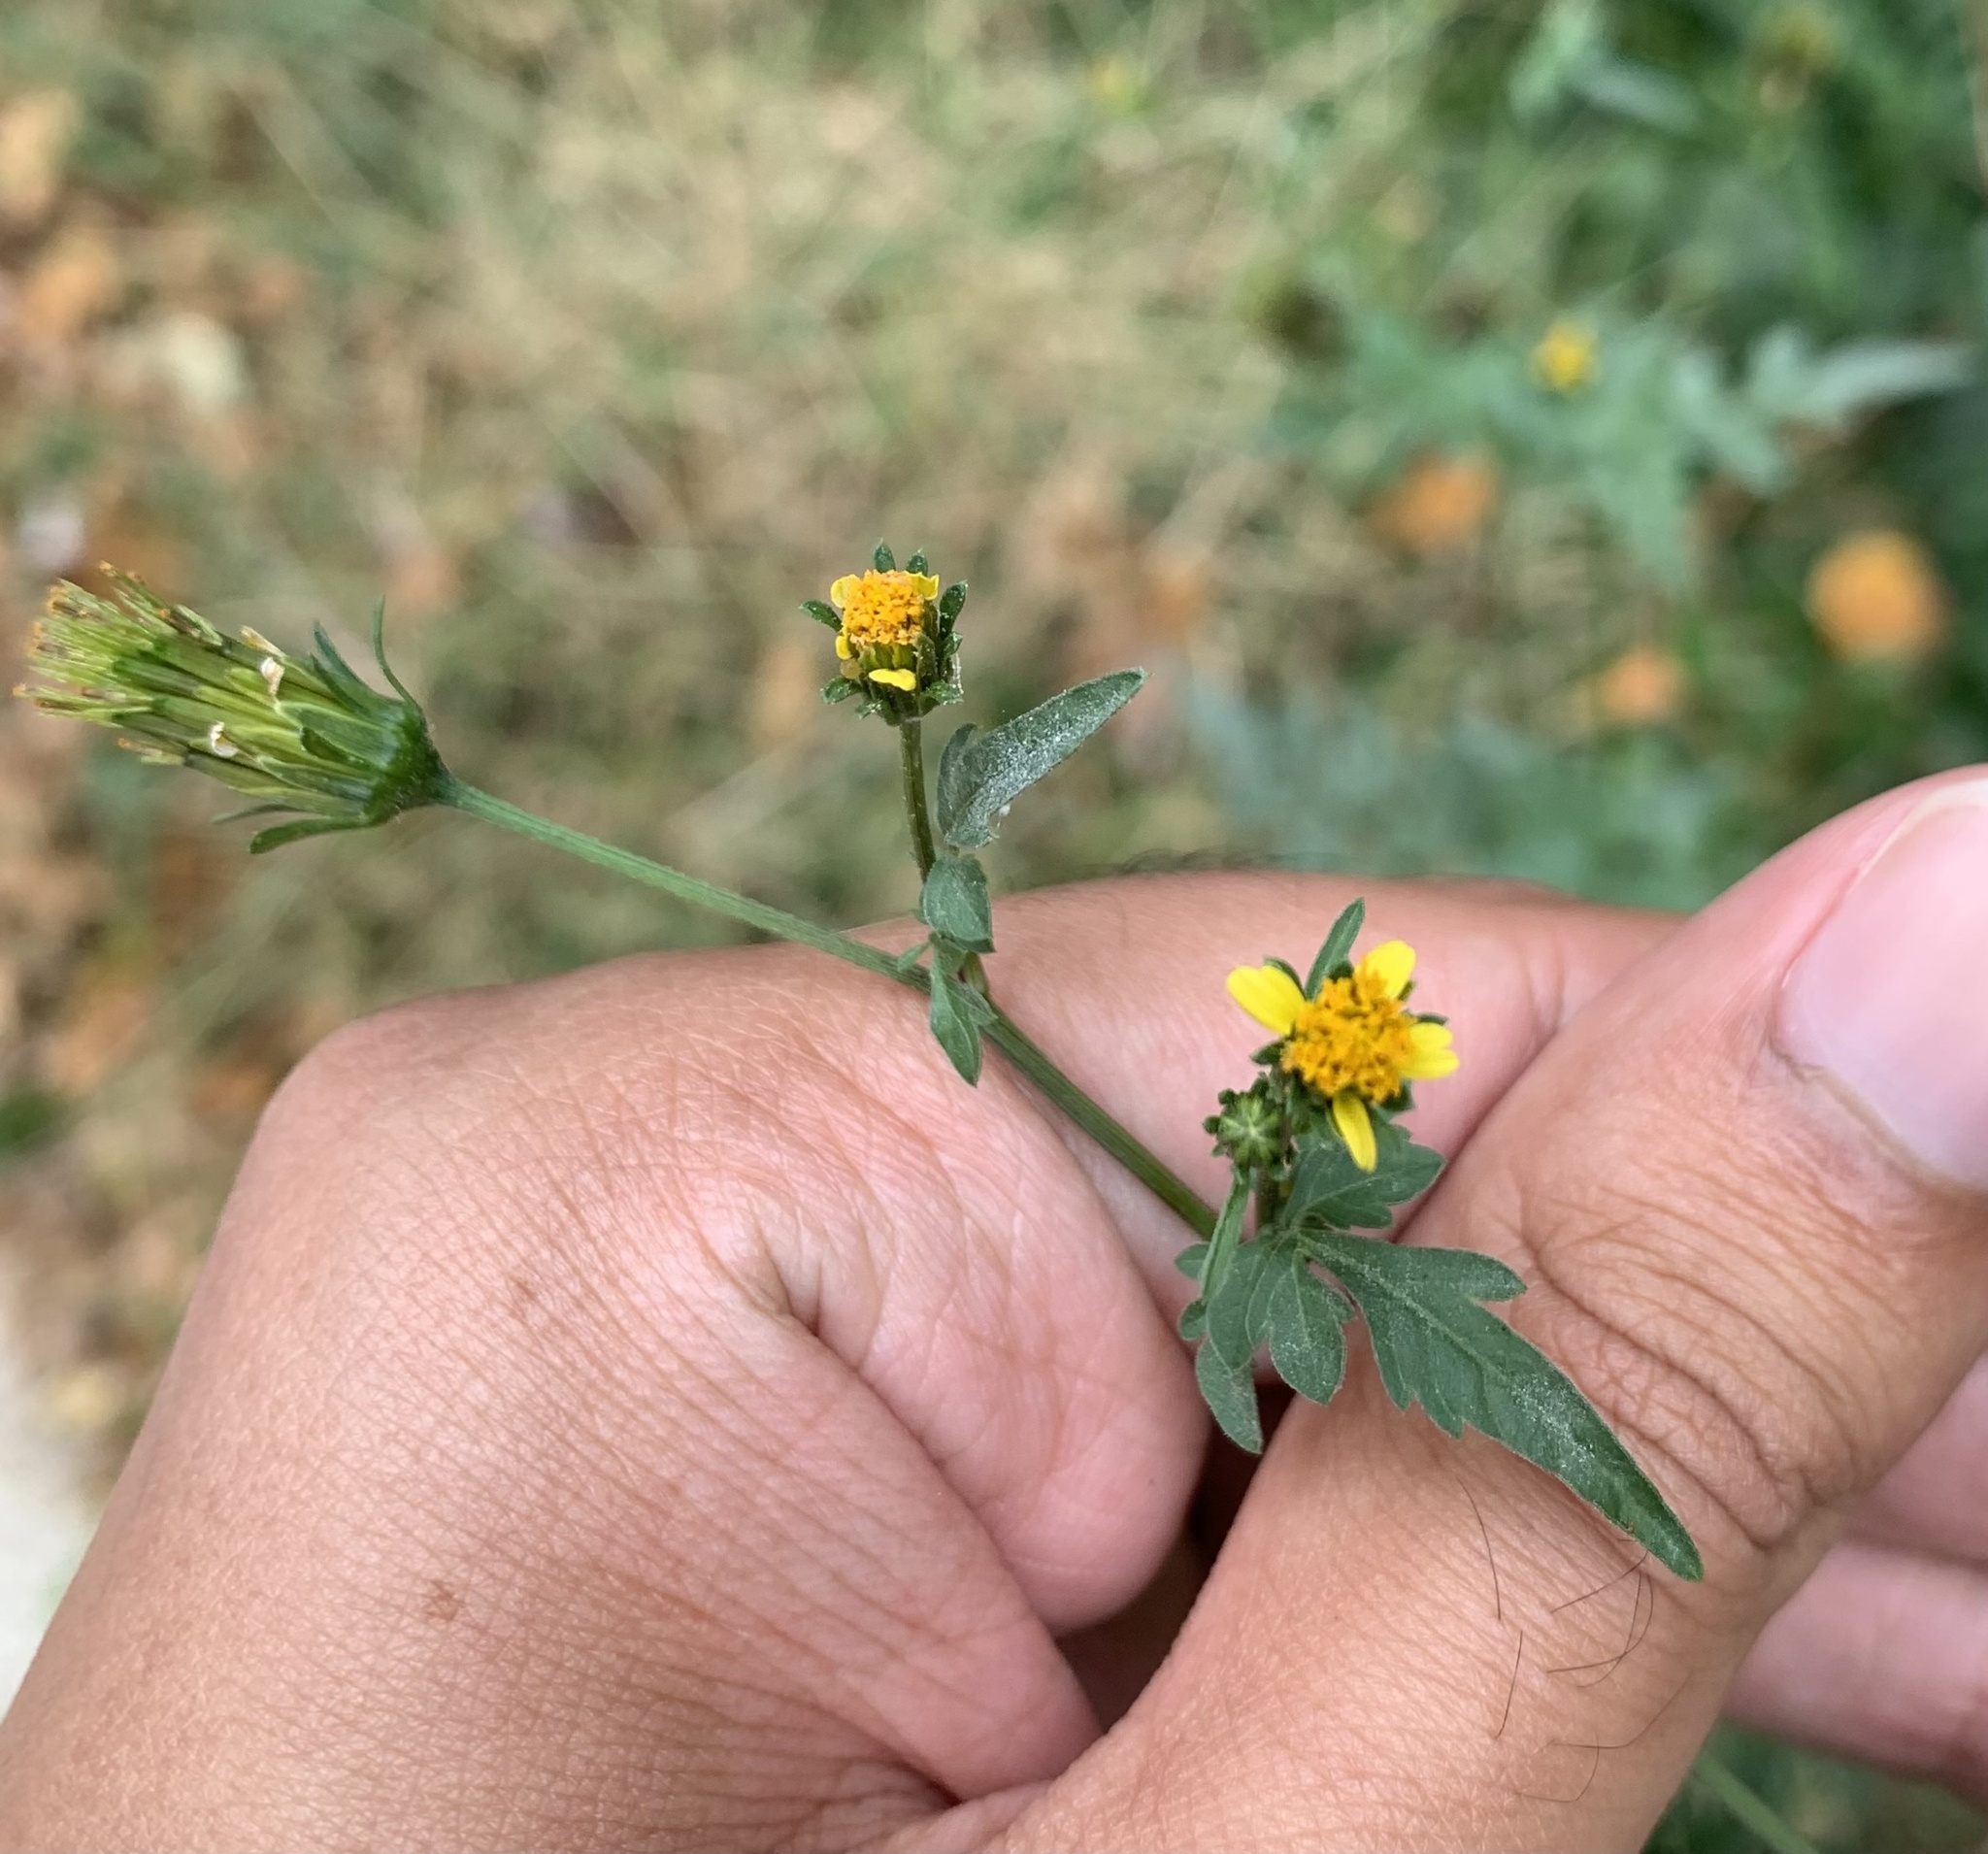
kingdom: Plantae
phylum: Tracheophyta
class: Magnoliopsida
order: Asterales
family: Asteraceae
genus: Bidens
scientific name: Bidens bipinnata
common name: Spanish-needles
